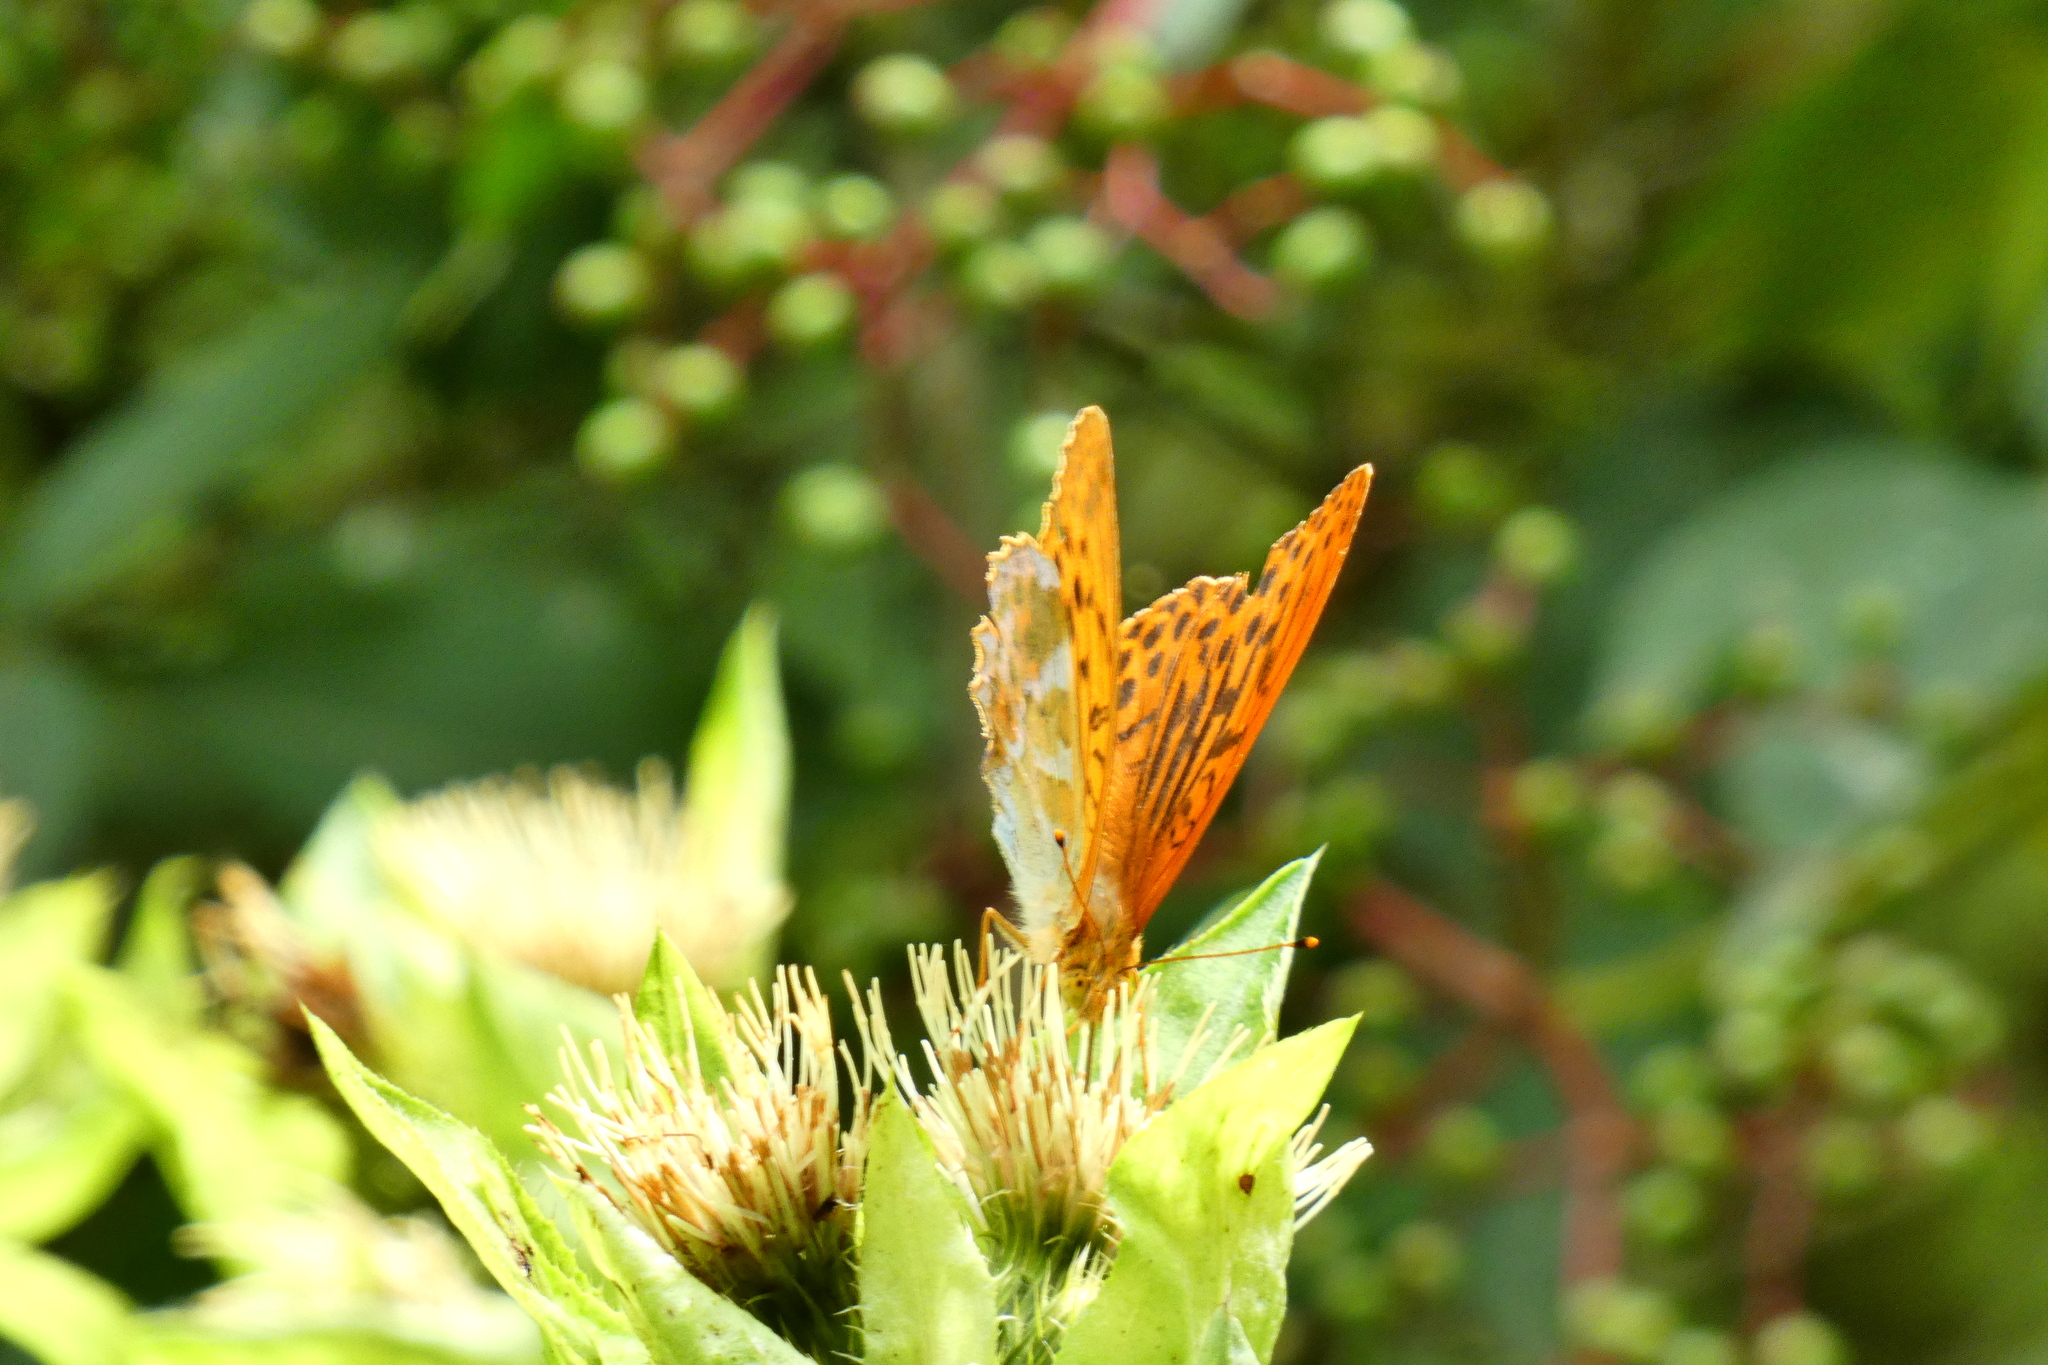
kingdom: Animalia
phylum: Arthropoda
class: Insecta
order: Lepidoptera
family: Nymphalidae
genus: Argynnis
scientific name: Argynnis paphia
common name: Silver-washed fritillary
